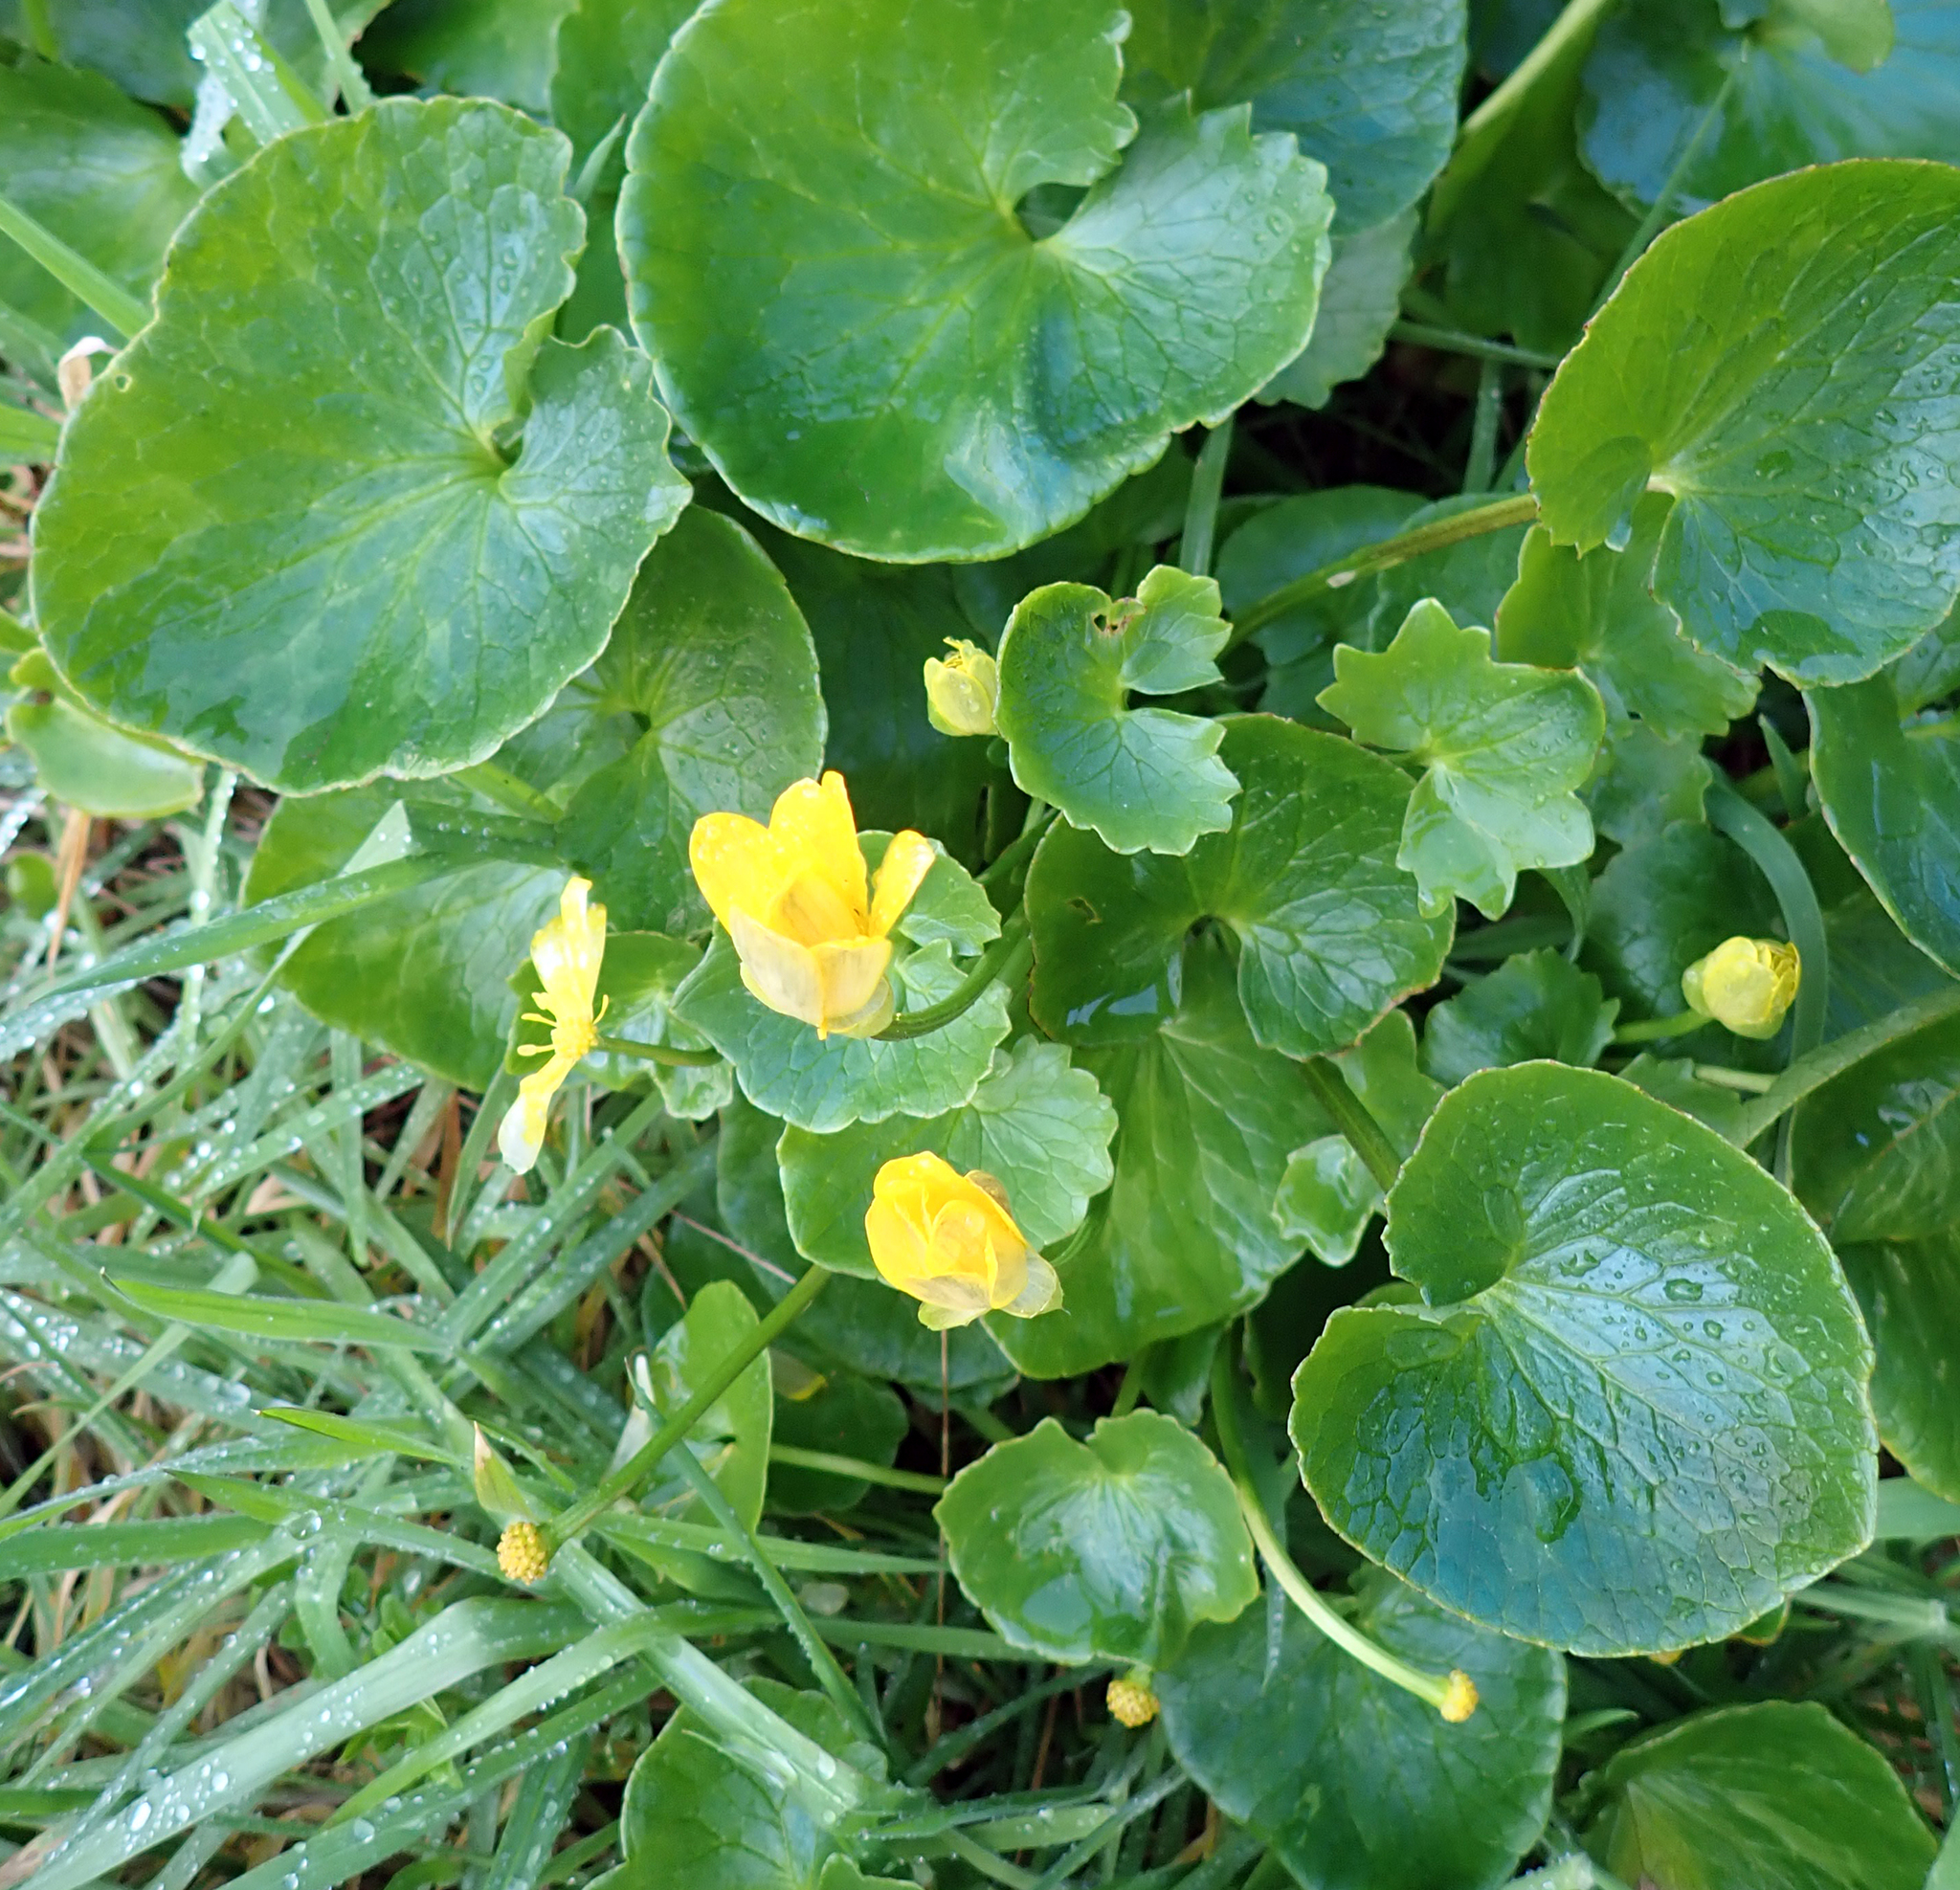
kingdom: Plantae
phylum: Tracheophyta
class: Magnoliopsida
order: Ranunculales
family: Ranunculaceae
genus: Ficaria
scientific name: Ficaria grandiflora
